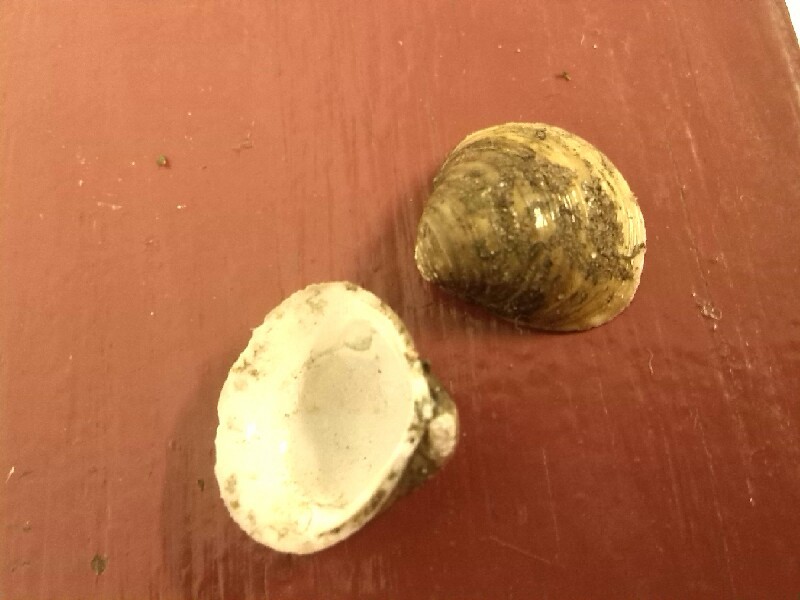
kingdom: Animalia
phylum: Mollusca
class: Bivalvia
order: Venerida
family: Cyrenidae
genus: Corbicula
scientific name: Corbicula fluminea
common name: Asian clam
